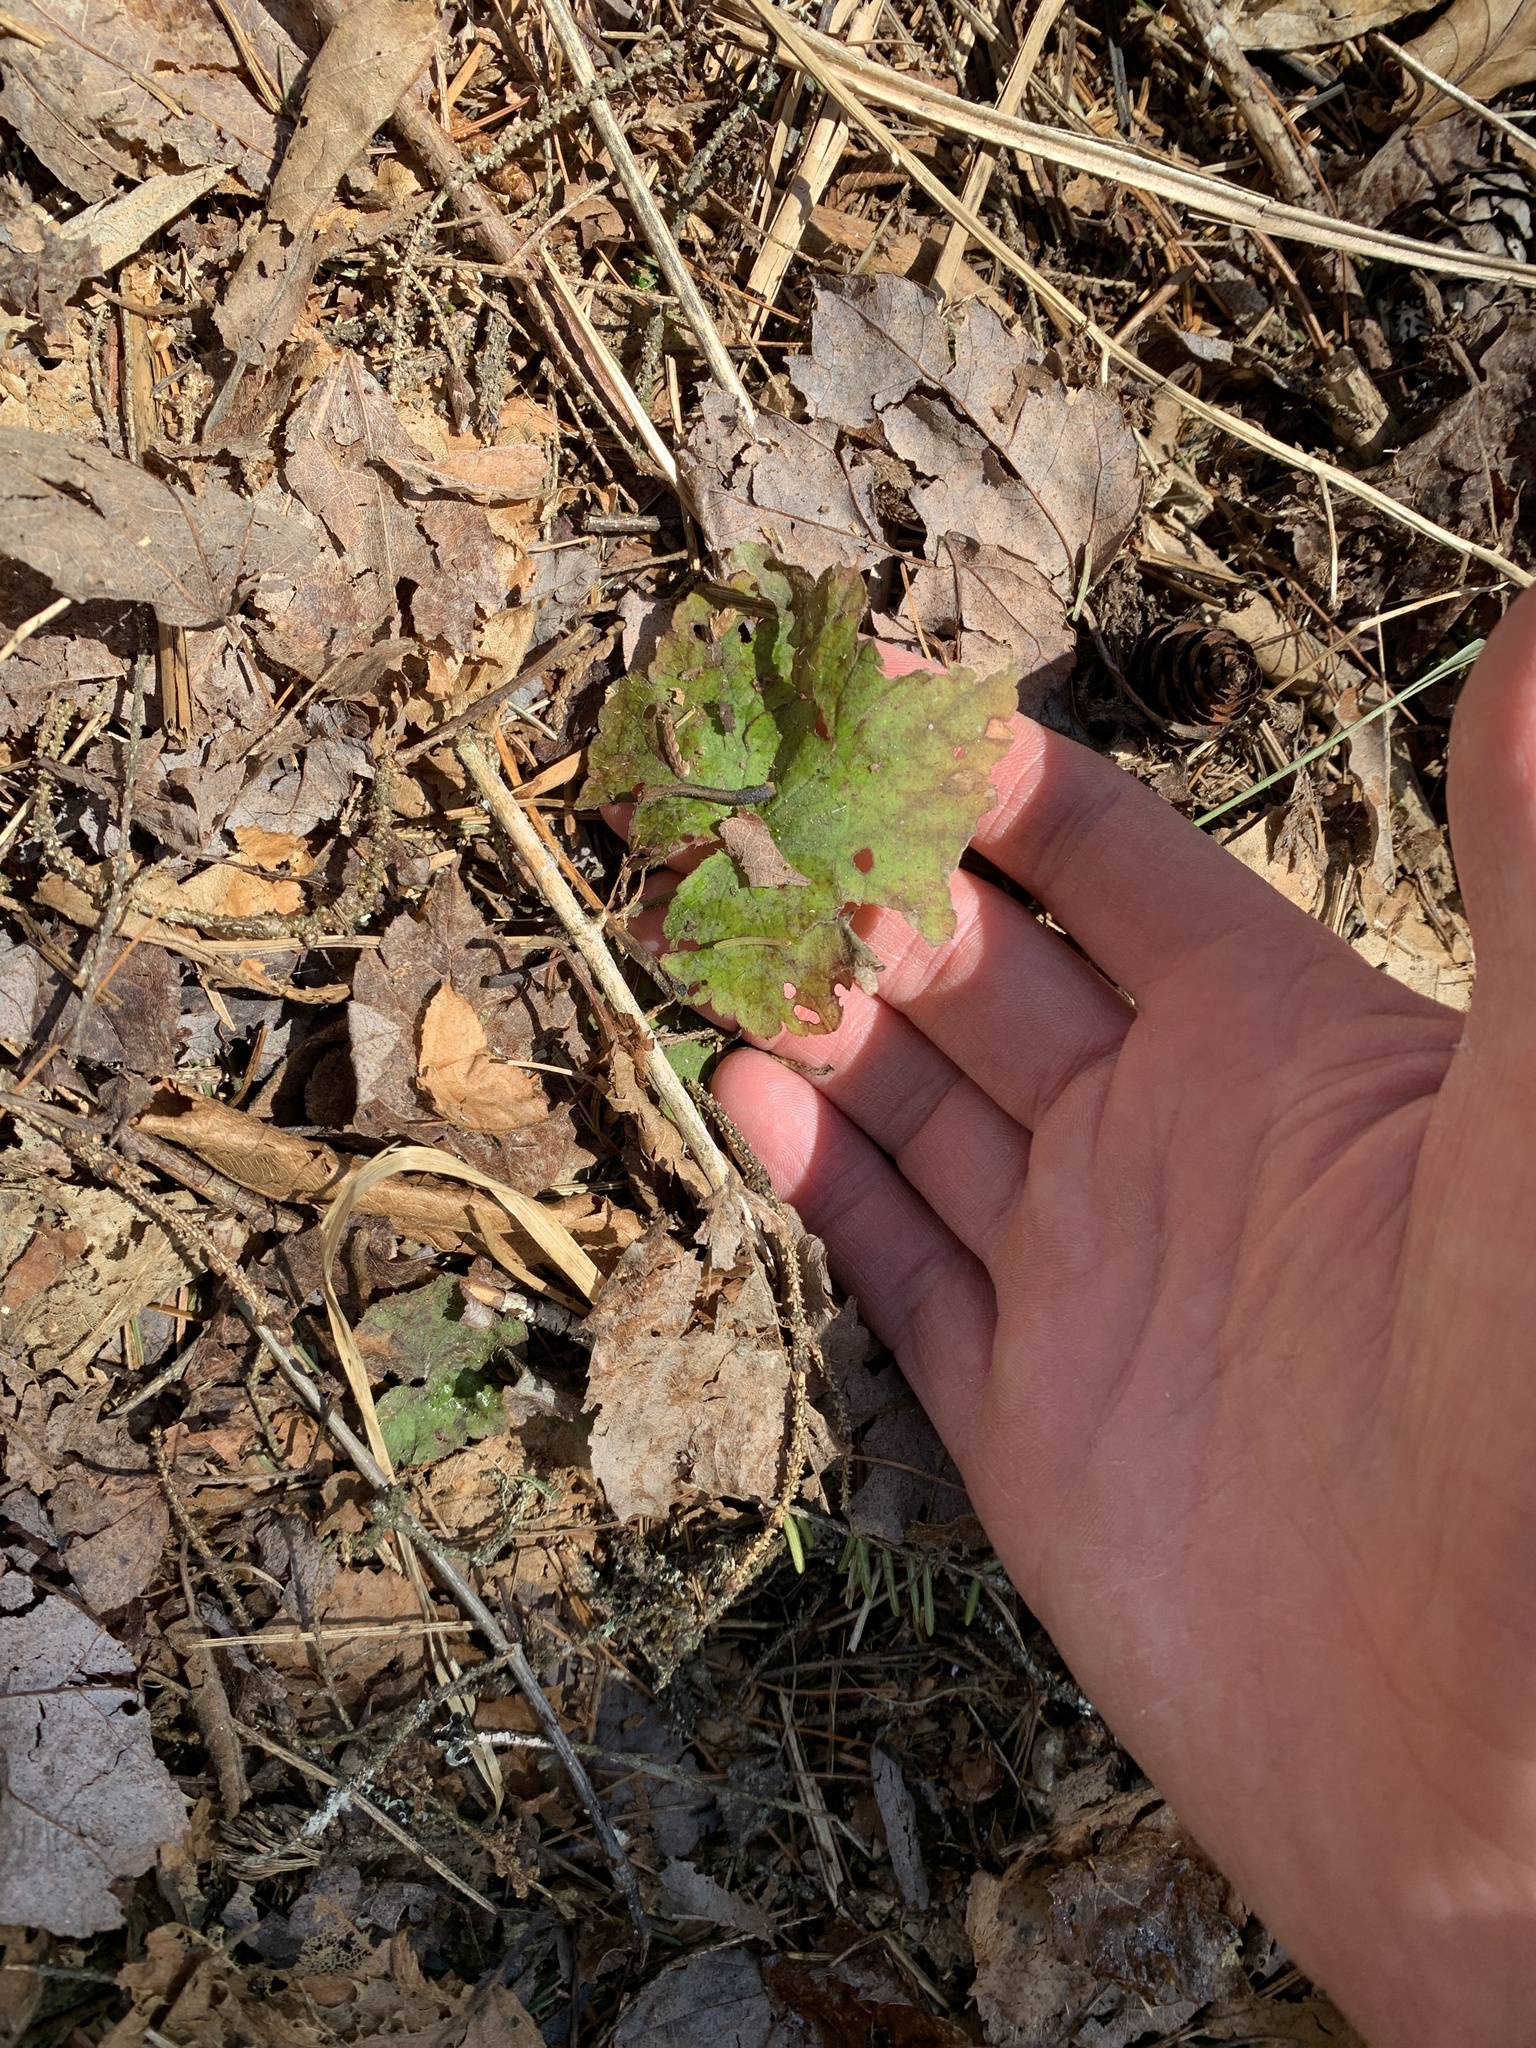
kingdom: Plantae
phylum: Tracheophyta
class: Magnoliopsida
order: Saxifragales
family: Saxifragaceae
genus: Tiarella
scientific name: Tiarella stolonifera
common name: Stoloniferous foamflower
